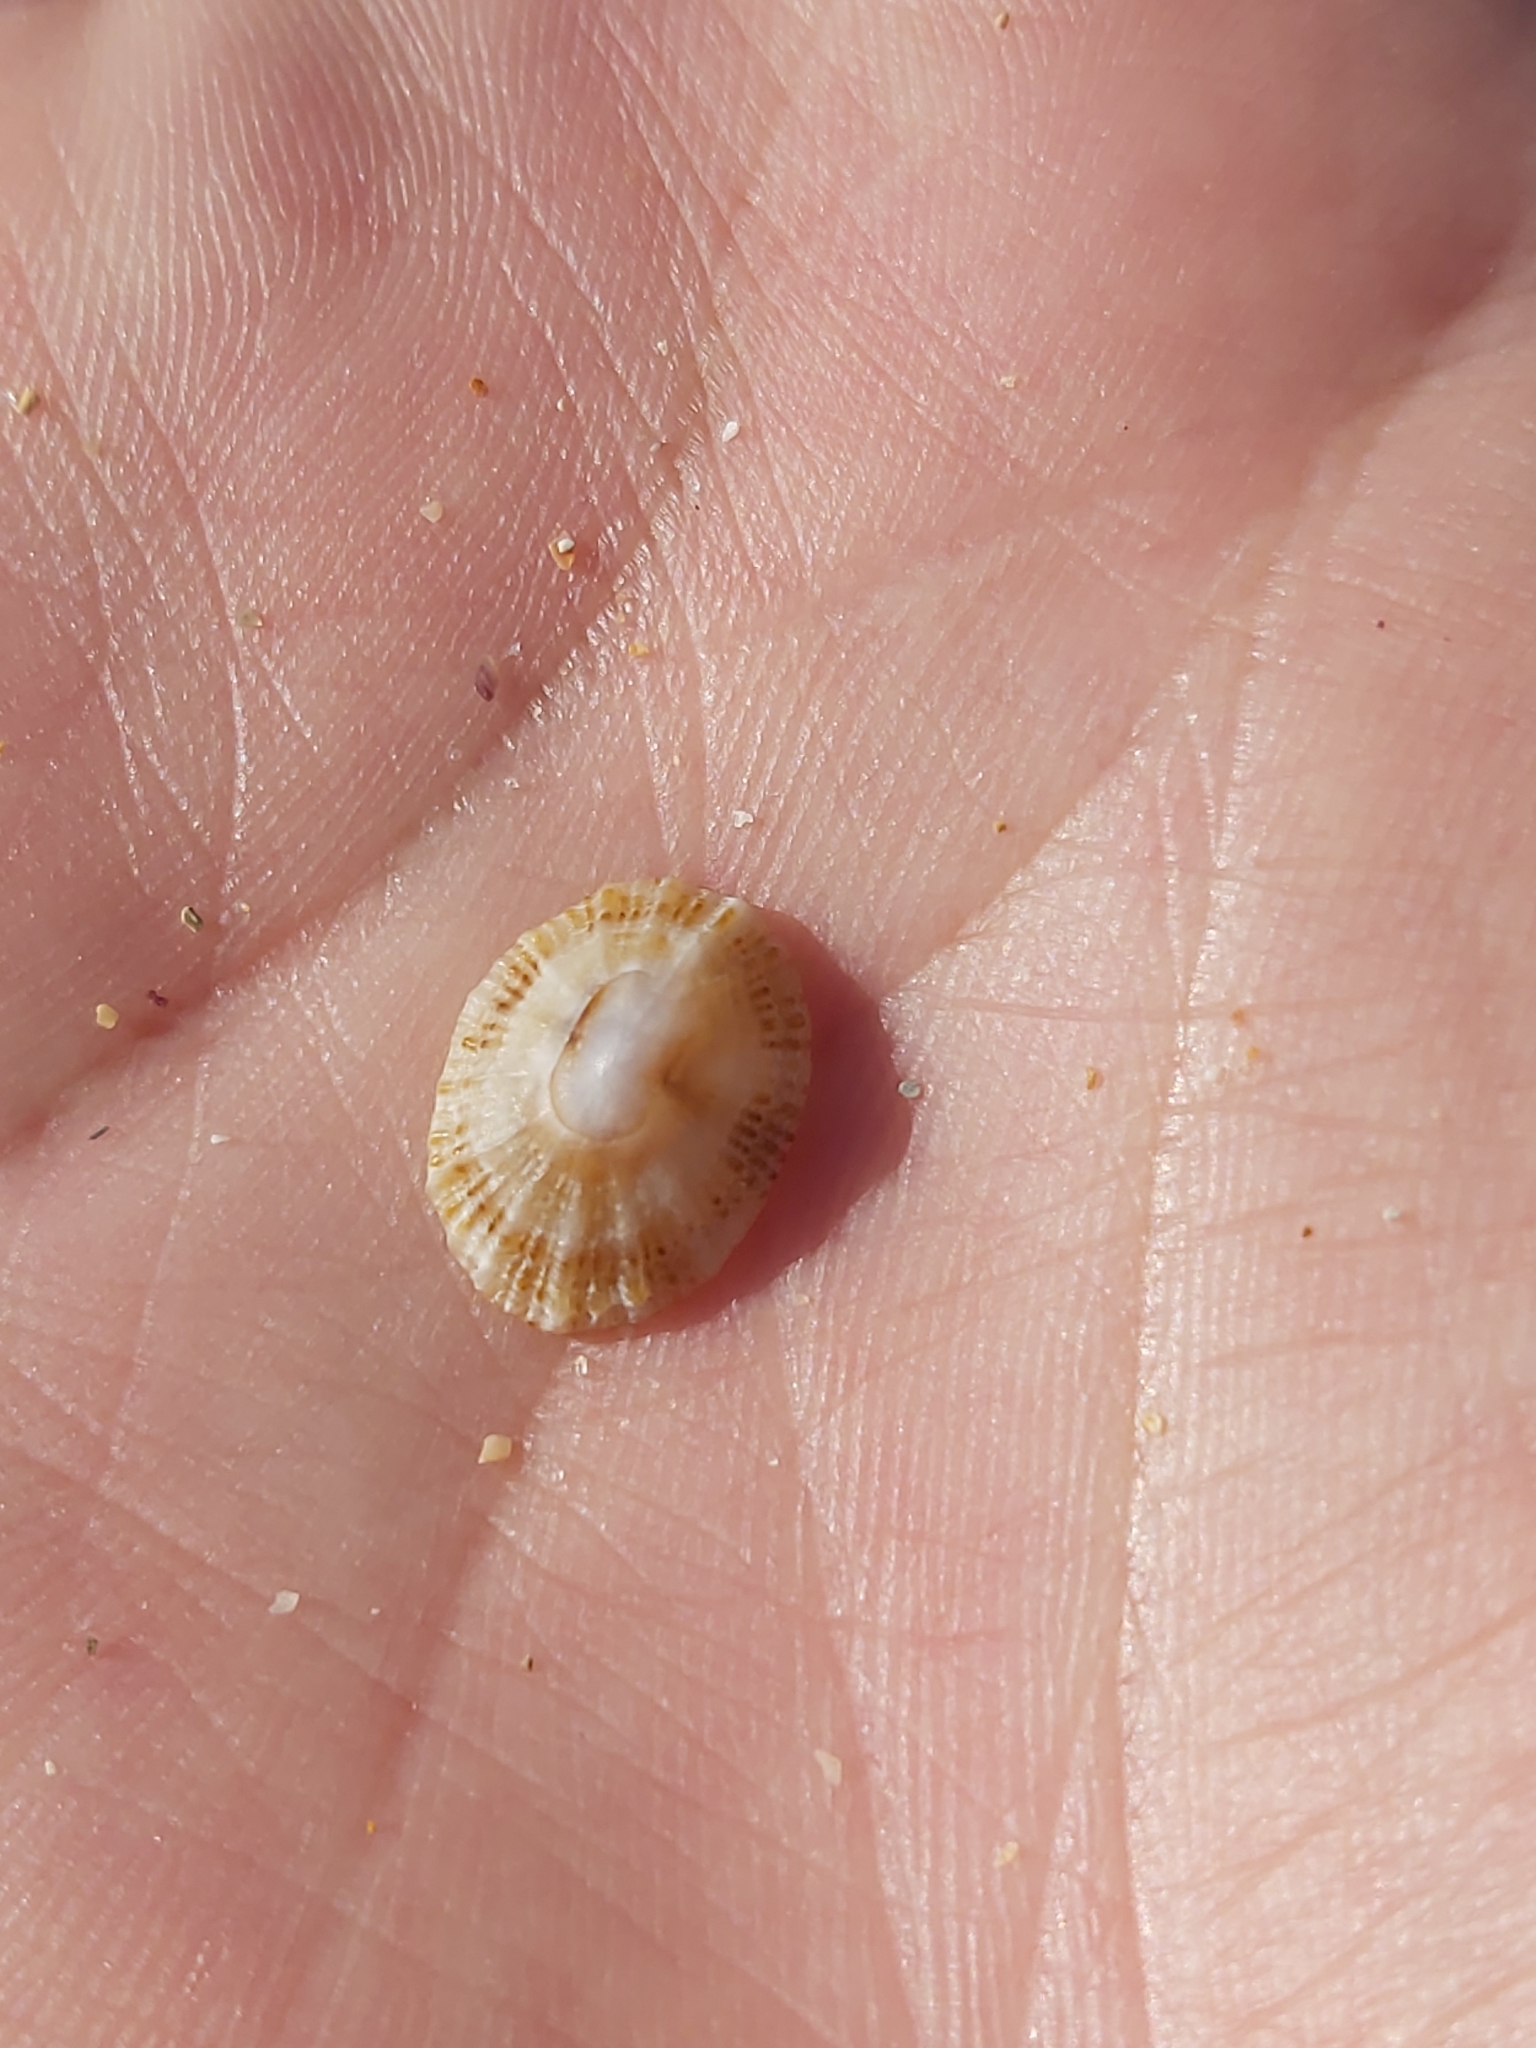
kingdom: Animalia
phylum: Mollusca
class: Gastropoda
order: Lepetellida
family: Fissurellidae
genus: Montfortula
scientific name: Montfortula rugosa
